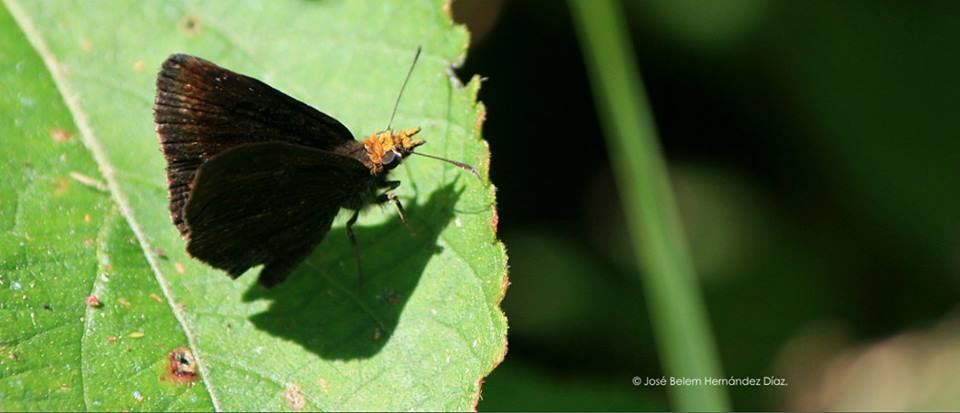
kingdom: Animalia
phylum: Arthropoda
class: Insecta
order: Lepidoptera
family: Hesperiidae
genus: Staphylus
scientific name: Staphylus ceos
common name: Golden-headed scallopwing
